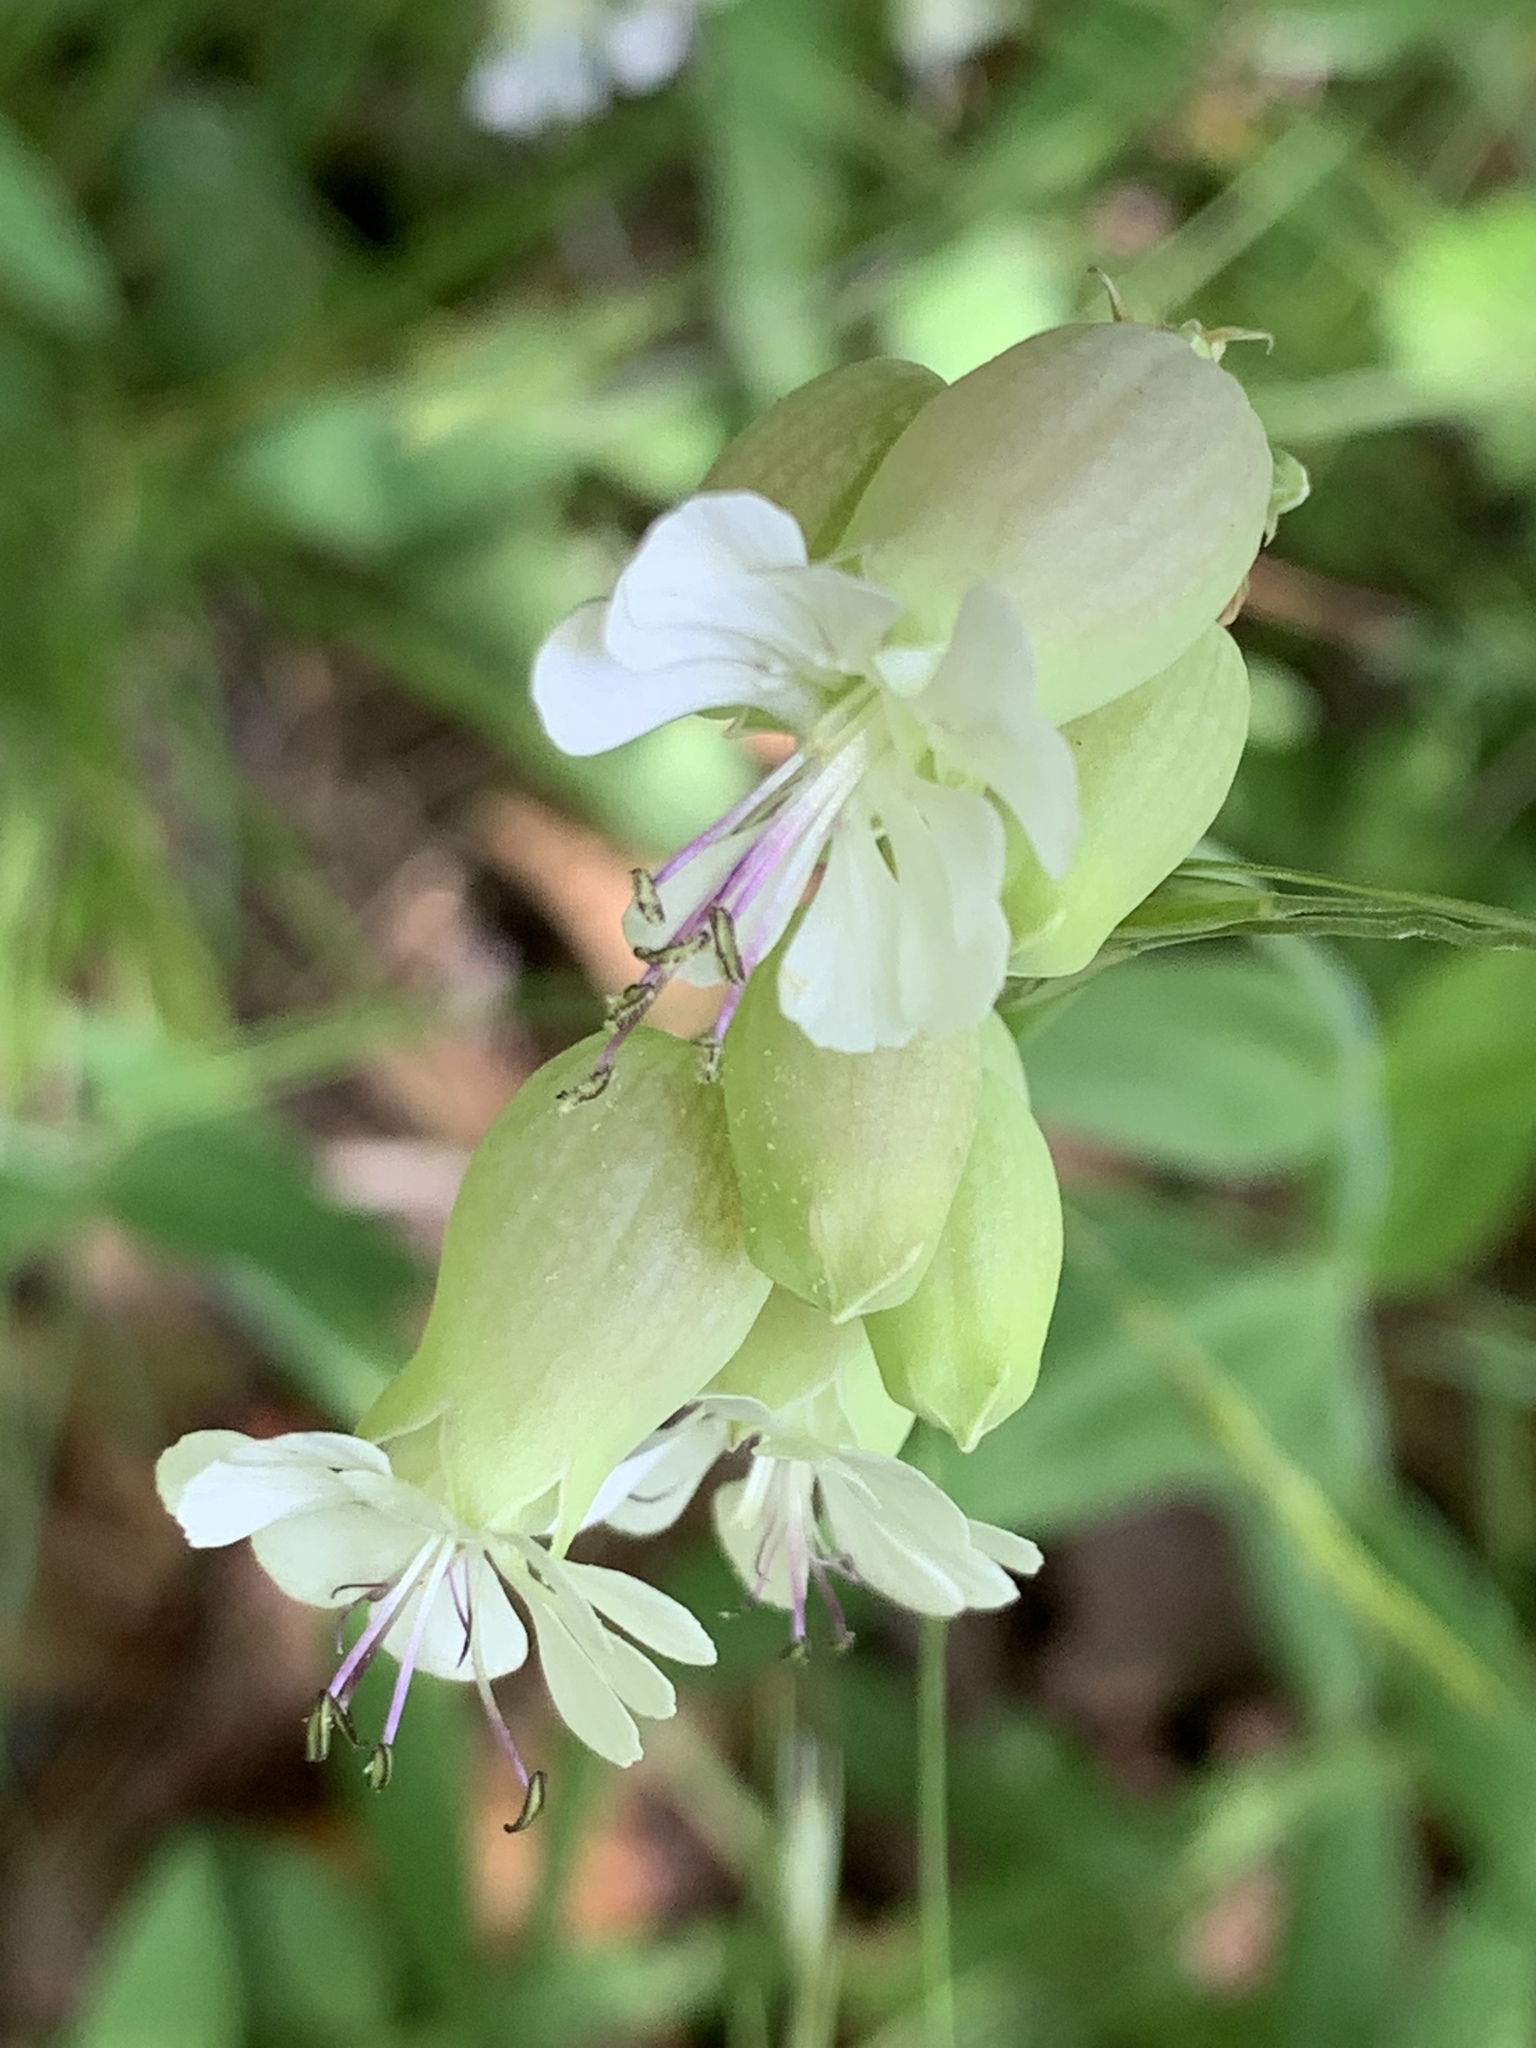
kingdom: Plantae
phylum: Tracheophyta
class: Magnoliopsida
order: Caryophyllales
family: Caryophyllaceae
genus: Silene
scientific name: Silene vulgaris
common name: Bladder campion
